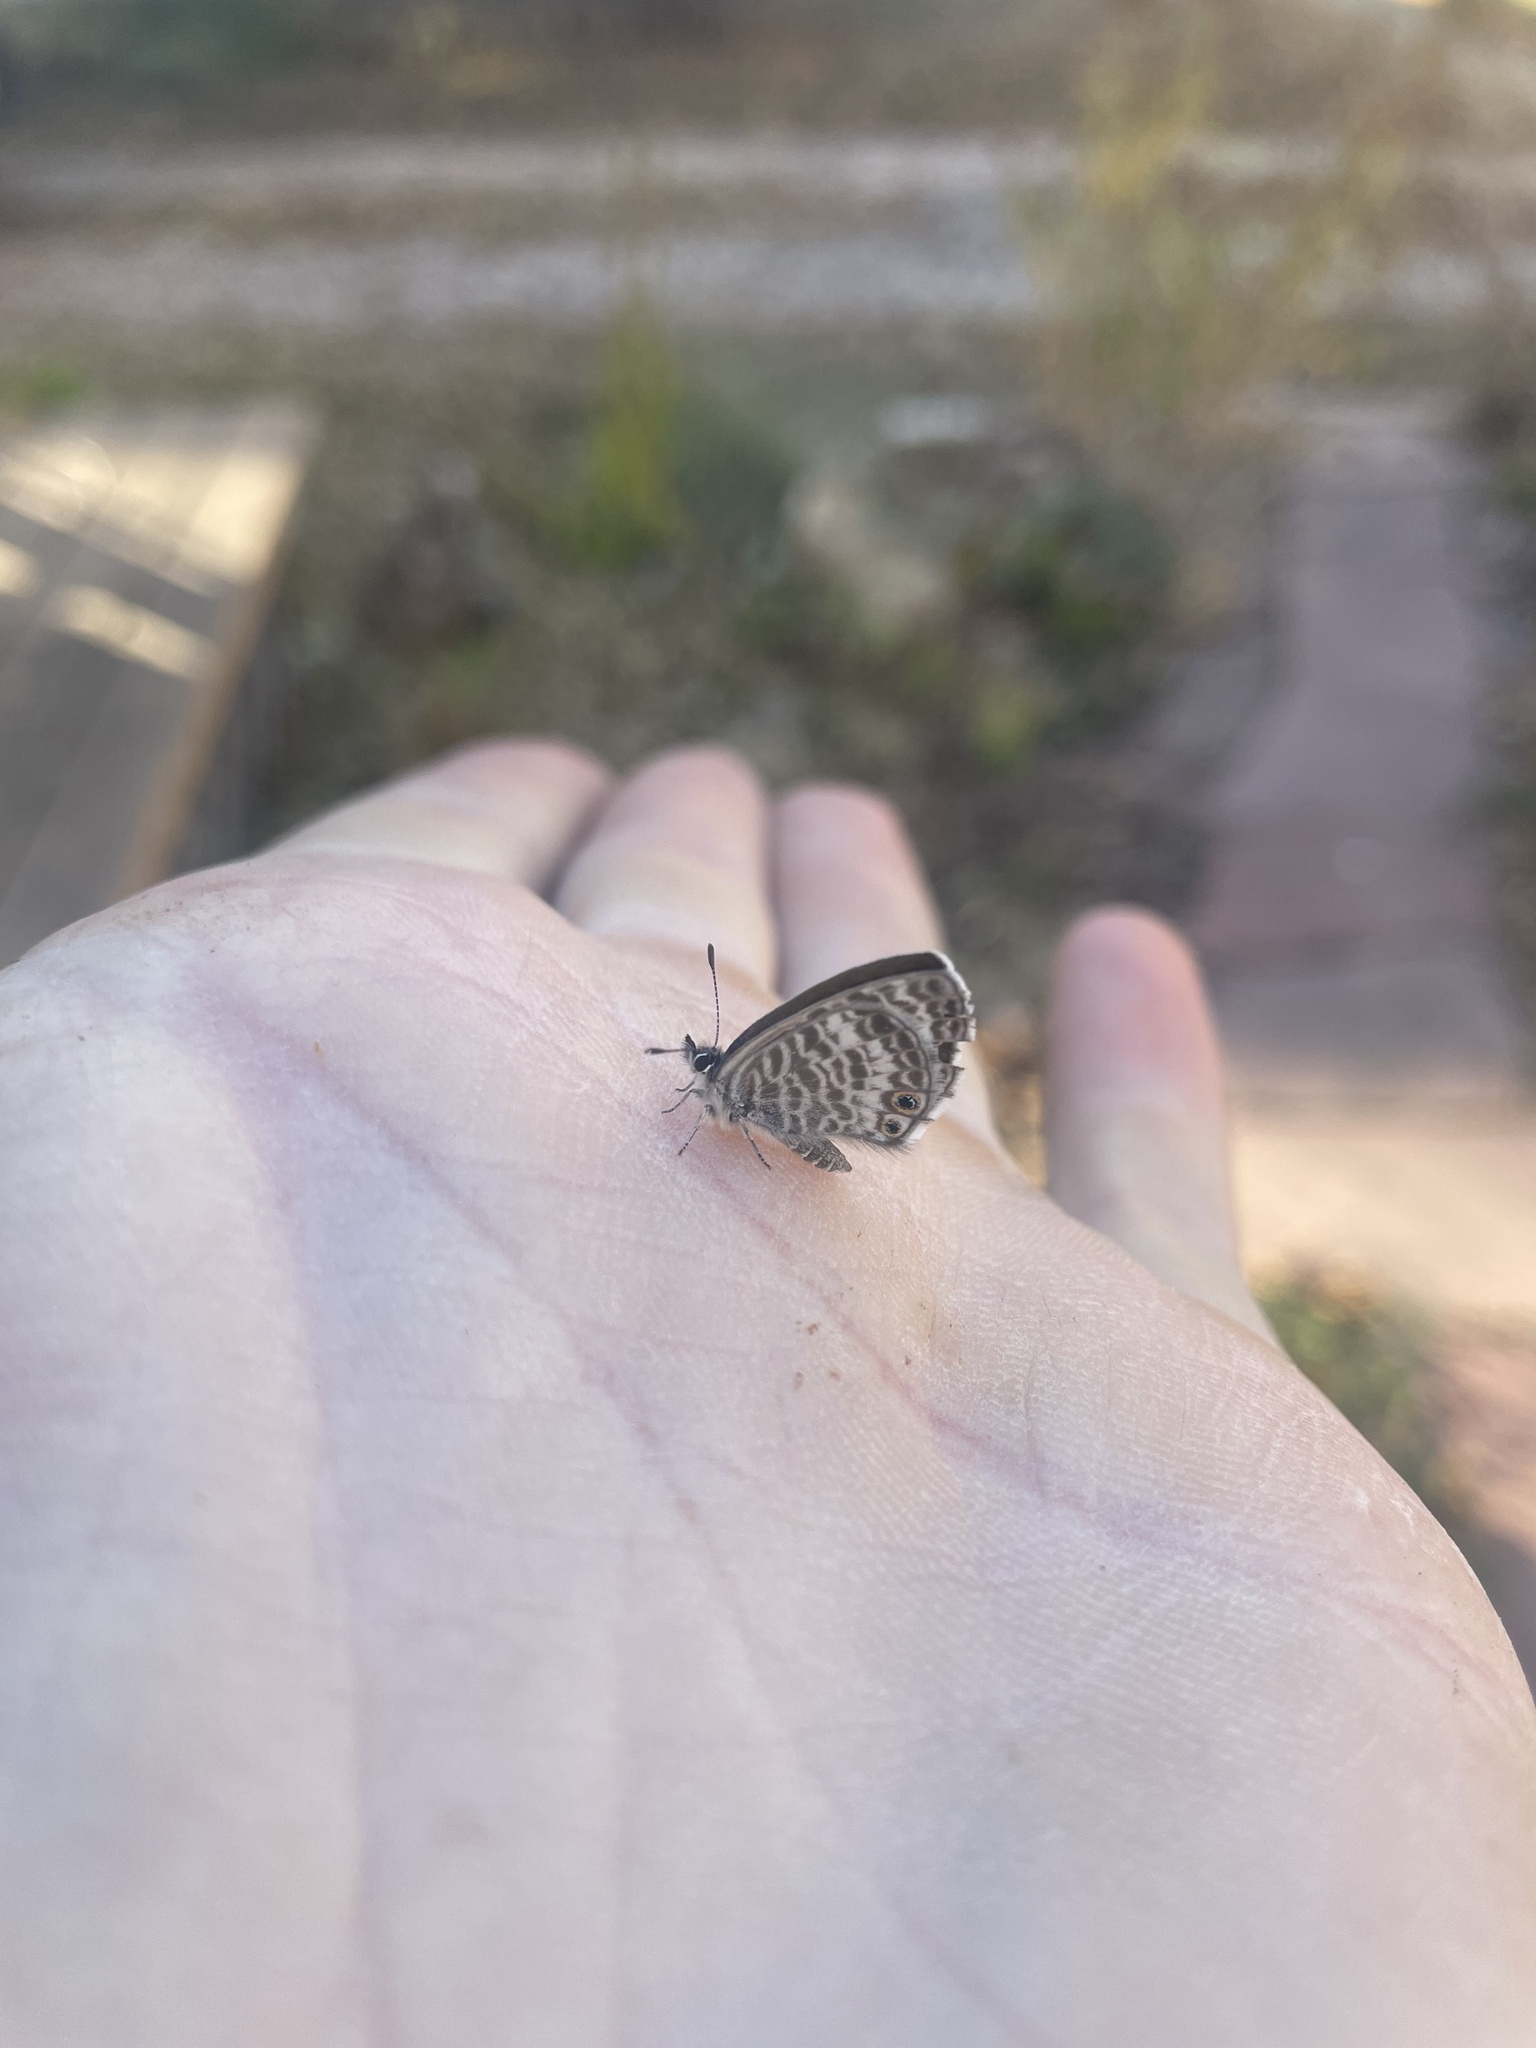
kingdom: Animalia
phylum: Arthropoda
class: Insecta
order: Lepidoptera
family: Lycaenidae
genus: Leptotes
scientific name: Leptotes marina
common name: Marine blue
